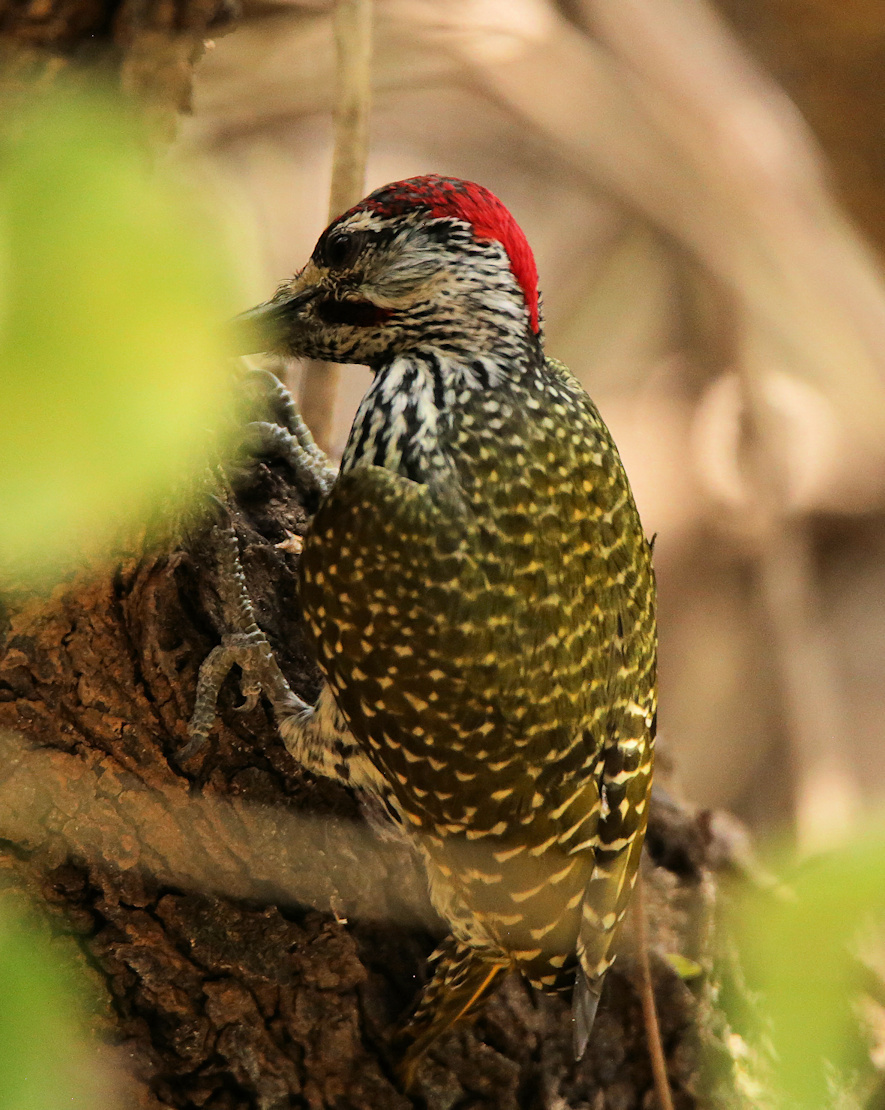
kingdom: Animalia
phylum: Chordata
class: Aves
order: Piciformes
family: Picidae
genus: Campethera
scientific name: Campethera abingoni
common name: Golden-tailed woodpecker
